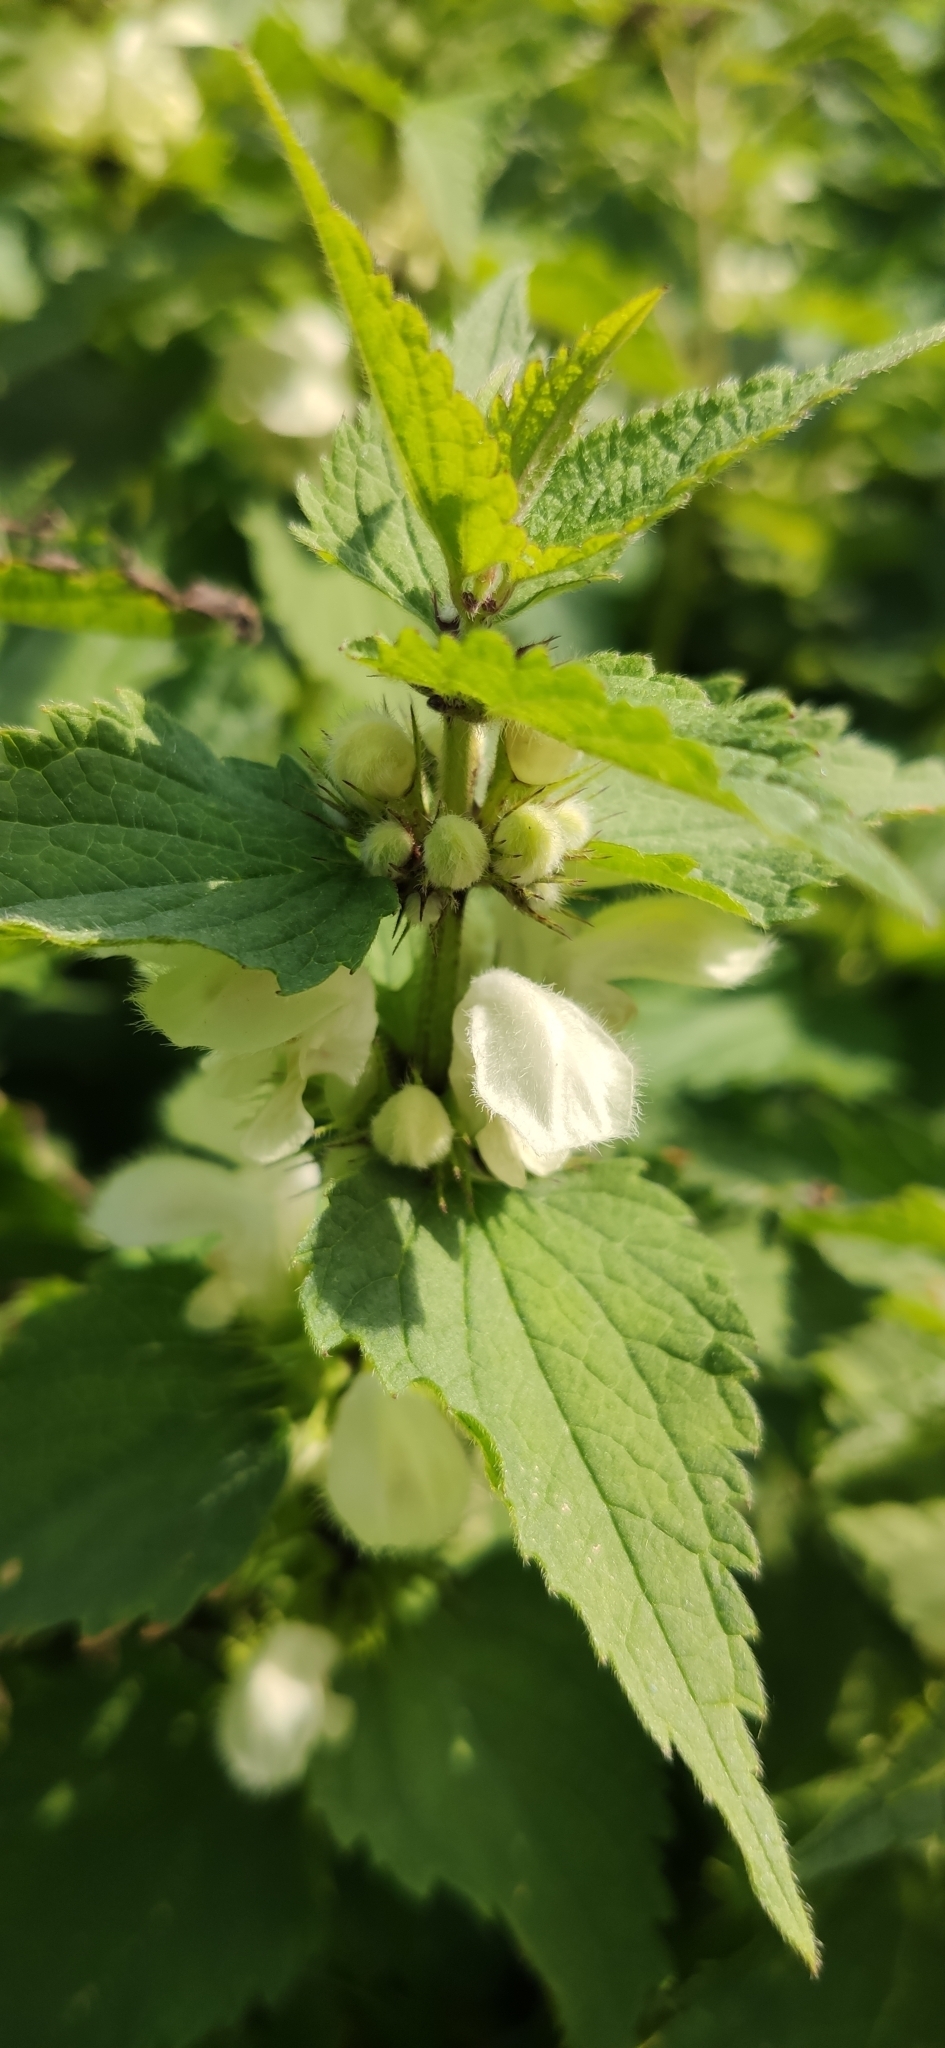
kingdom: Plantae
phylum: Tracheophyta
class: Magnoliopsida
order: Lamiales
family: Lamiaceae
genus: Lamium
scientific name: Lamium album
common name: White dead-nettle
